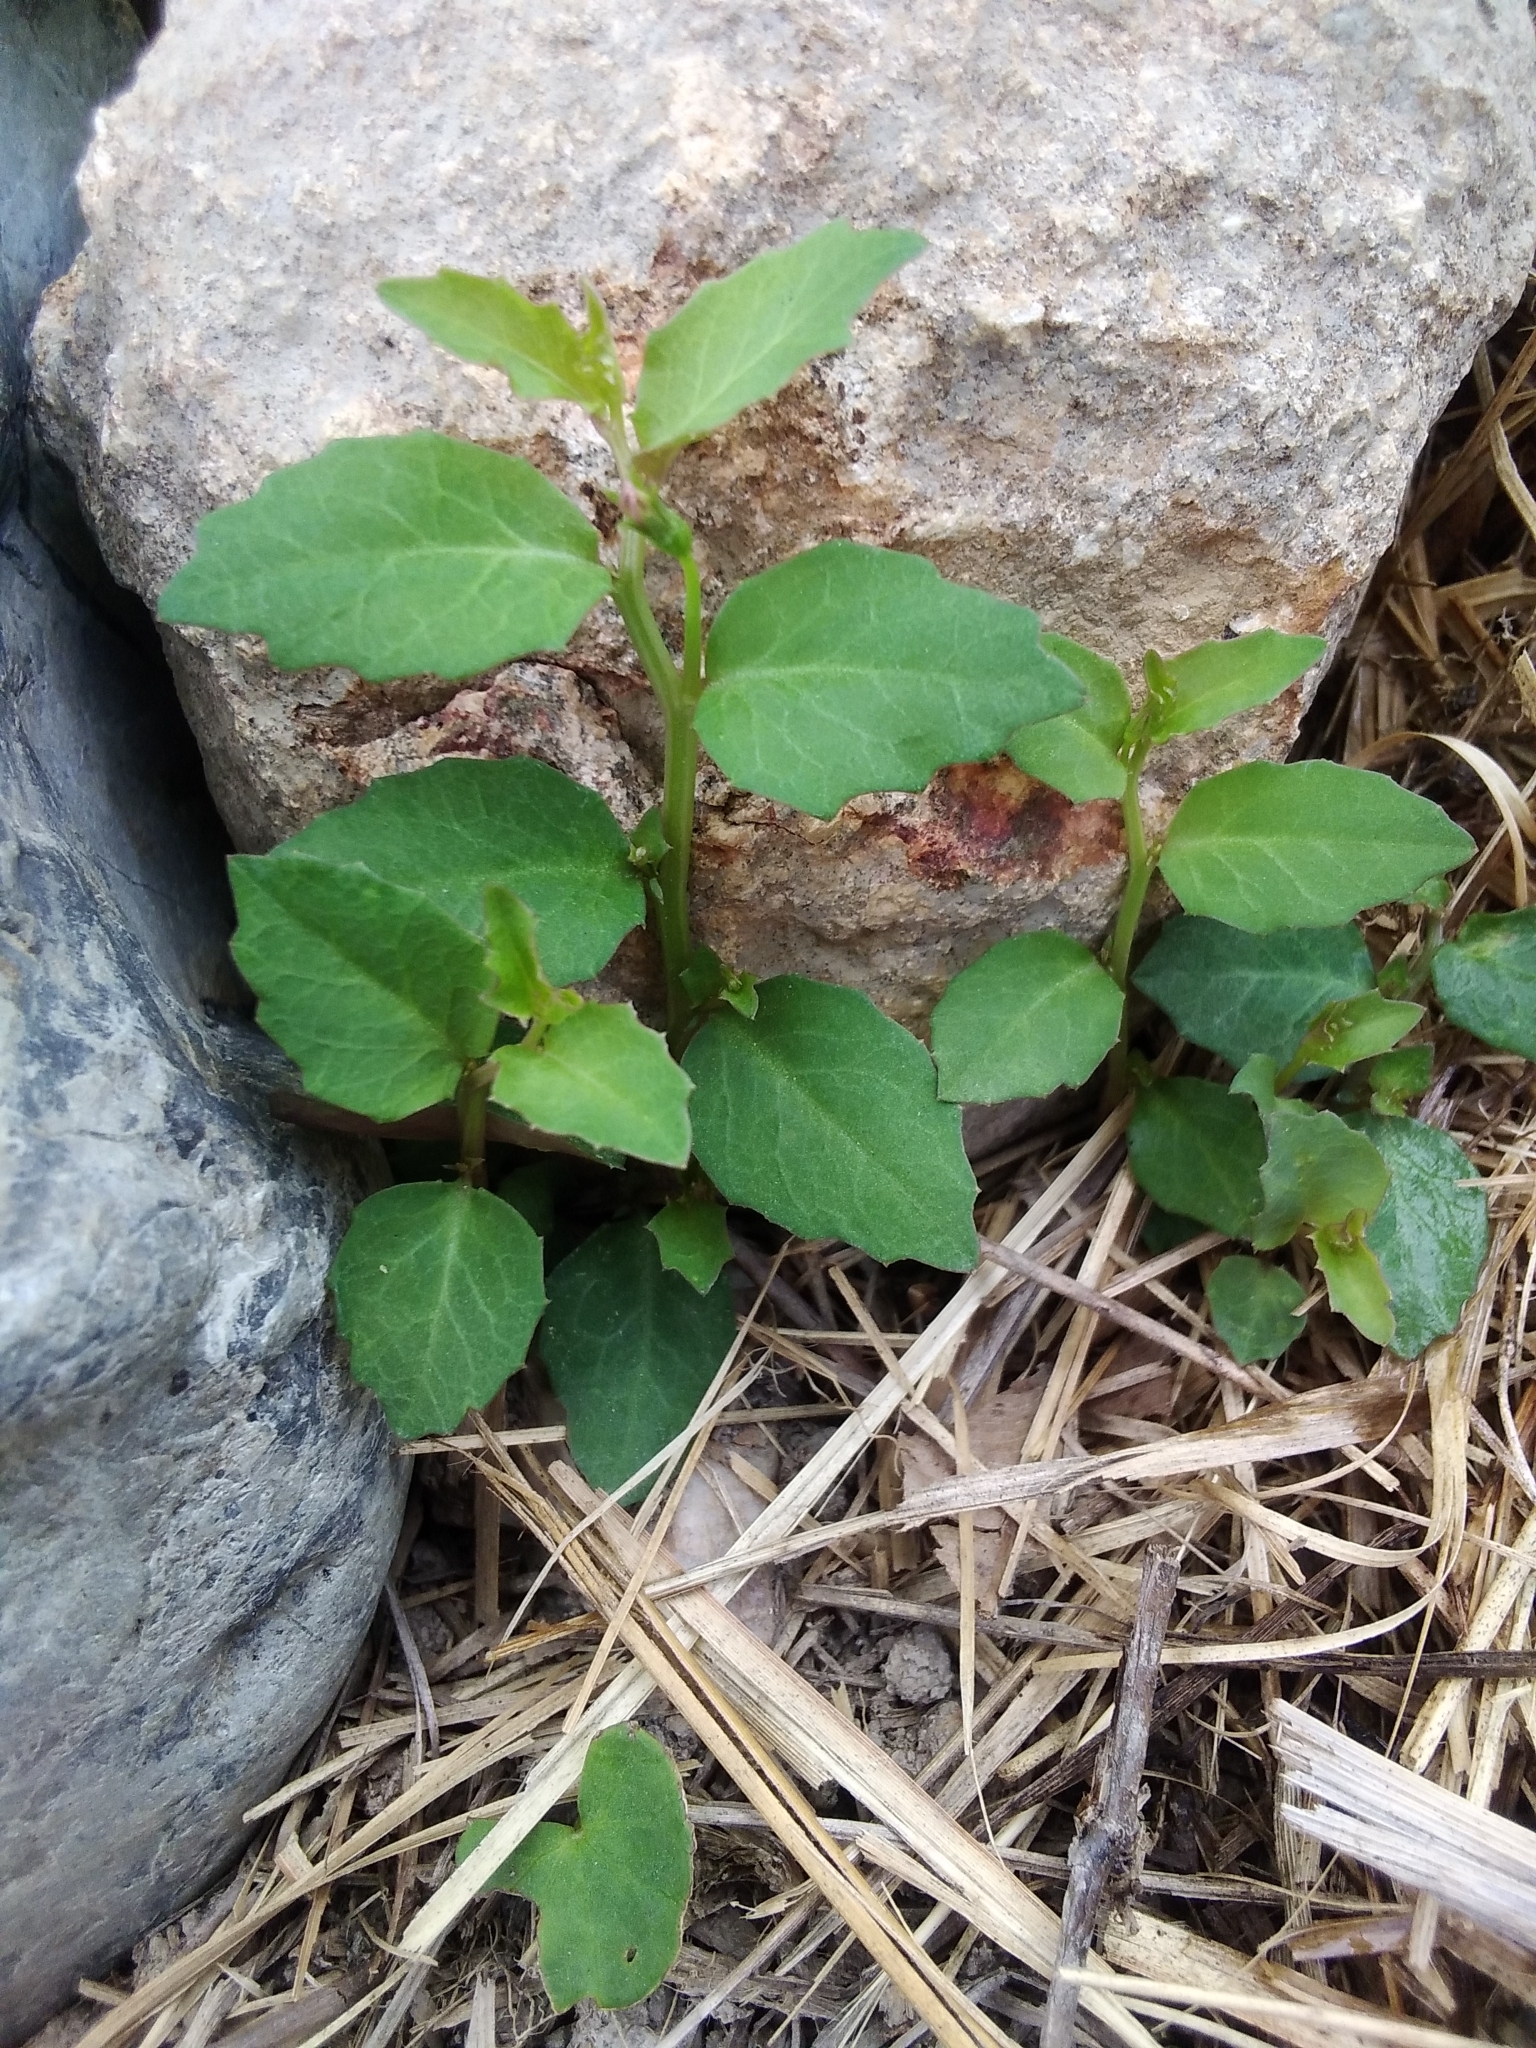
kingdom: Plantae
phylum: Tracheophyta
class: Magnoliopsida
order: Asterales
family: Campanulaceae
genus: Lobelia
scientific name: Lobelia purpurascens
